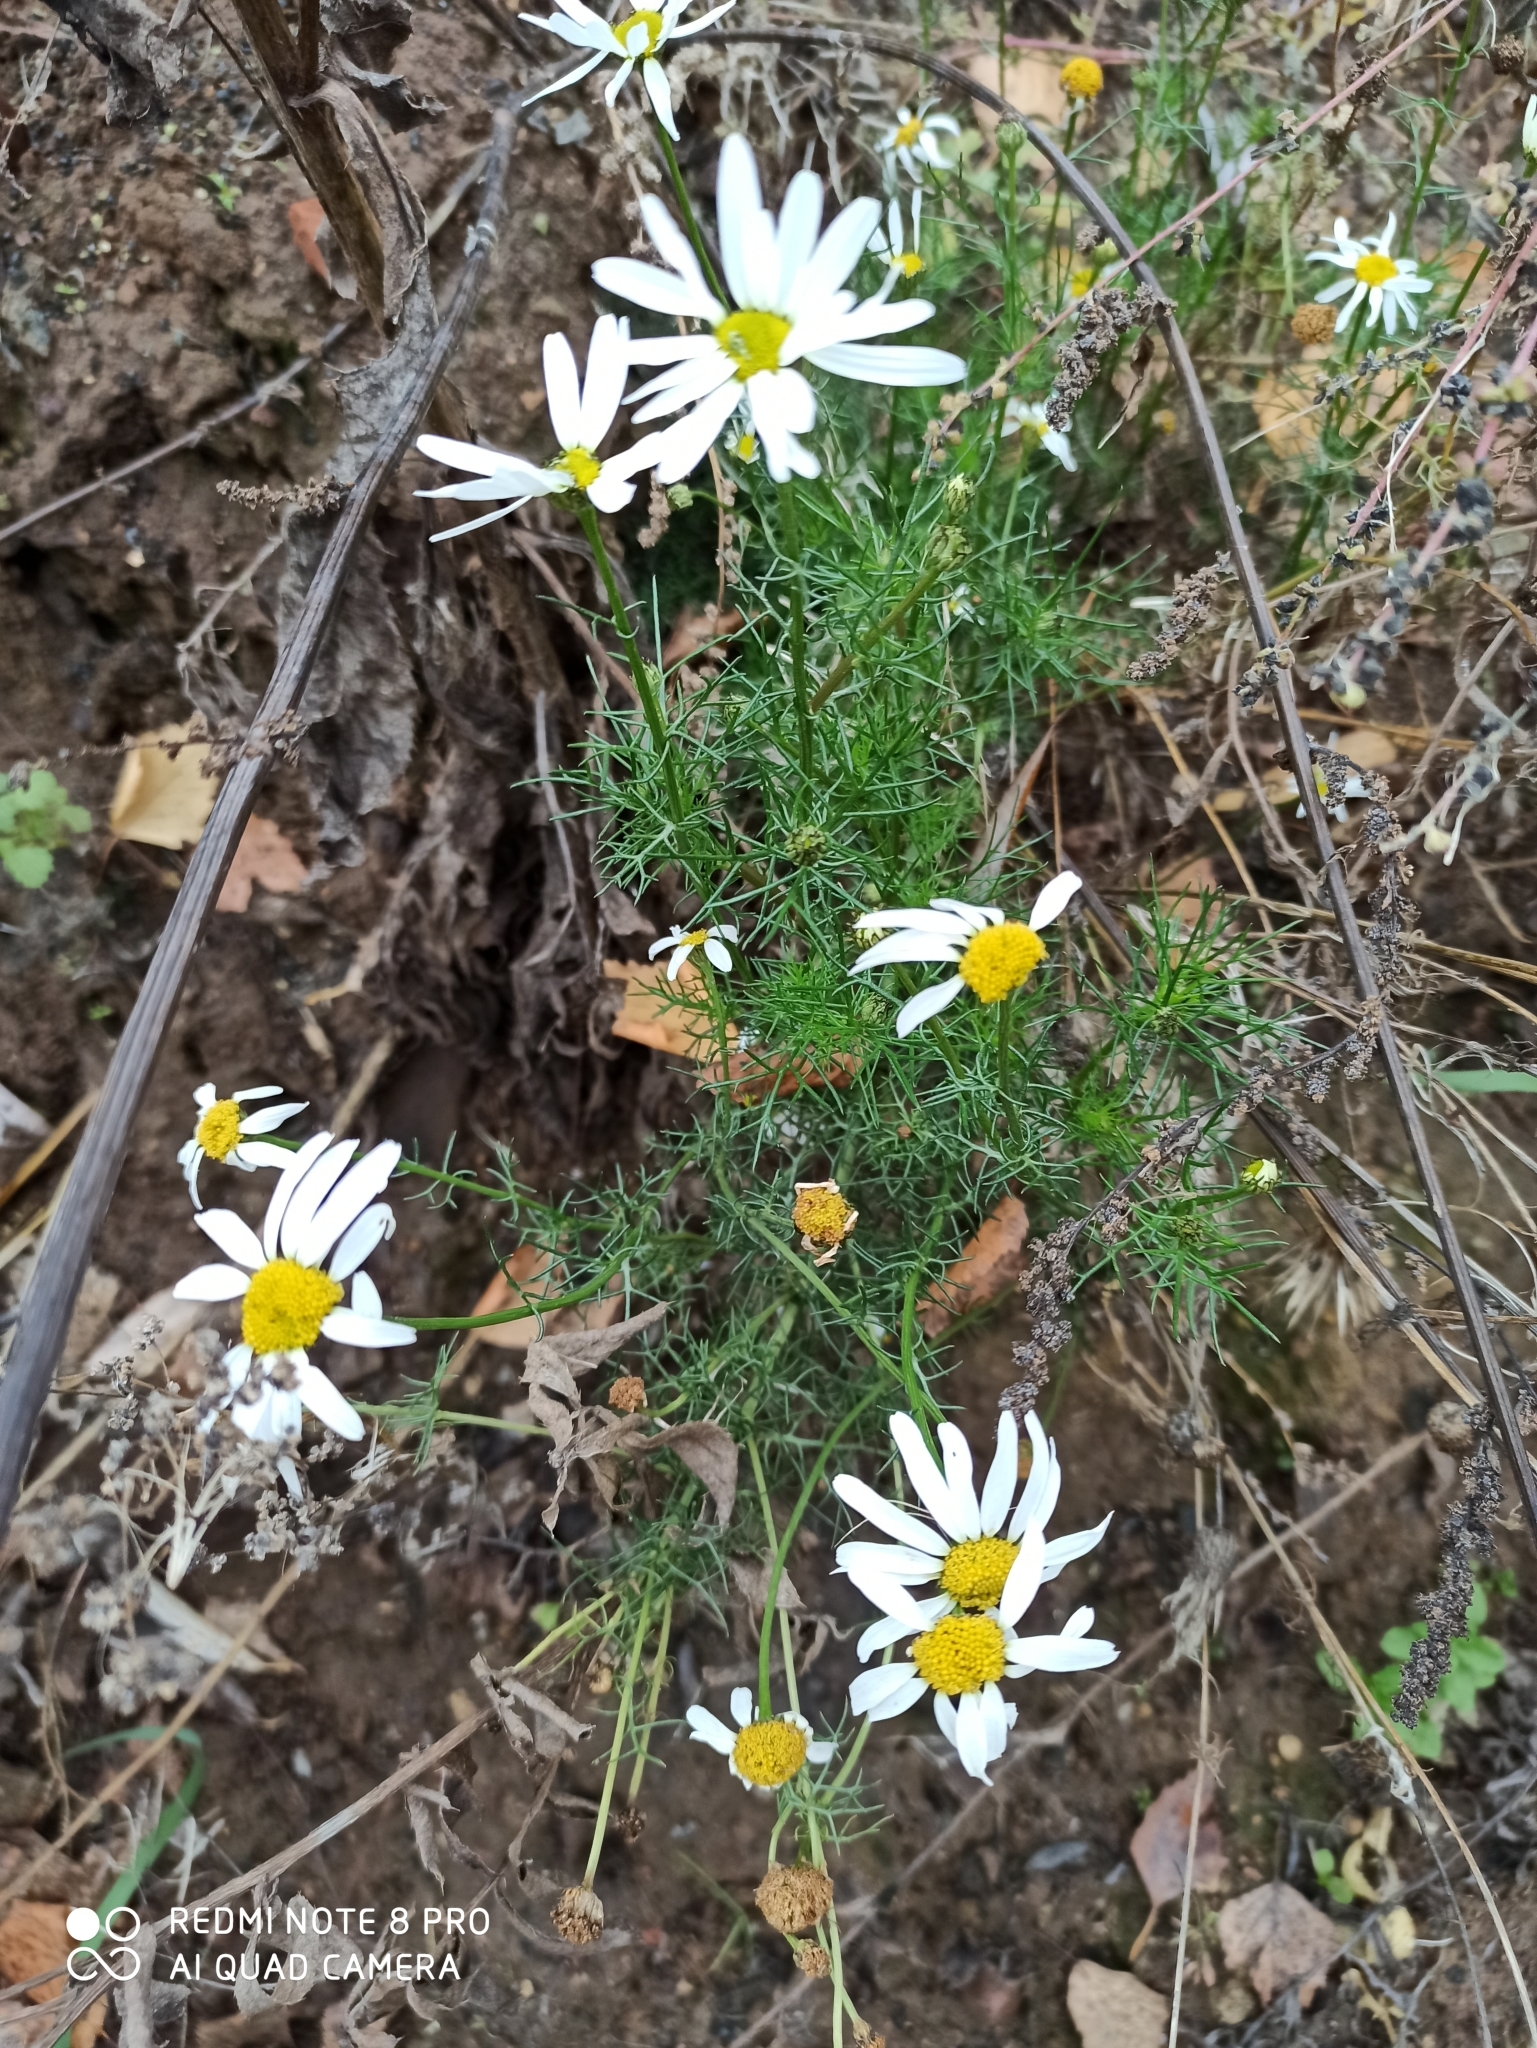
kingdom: Plantae
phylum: Tracheophyta
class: Magnoliopsida
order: Asterales
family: Asteraceae
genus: Tripleurospermum
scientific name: Tripleurospermum inodorum
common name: Scentless mayweed
